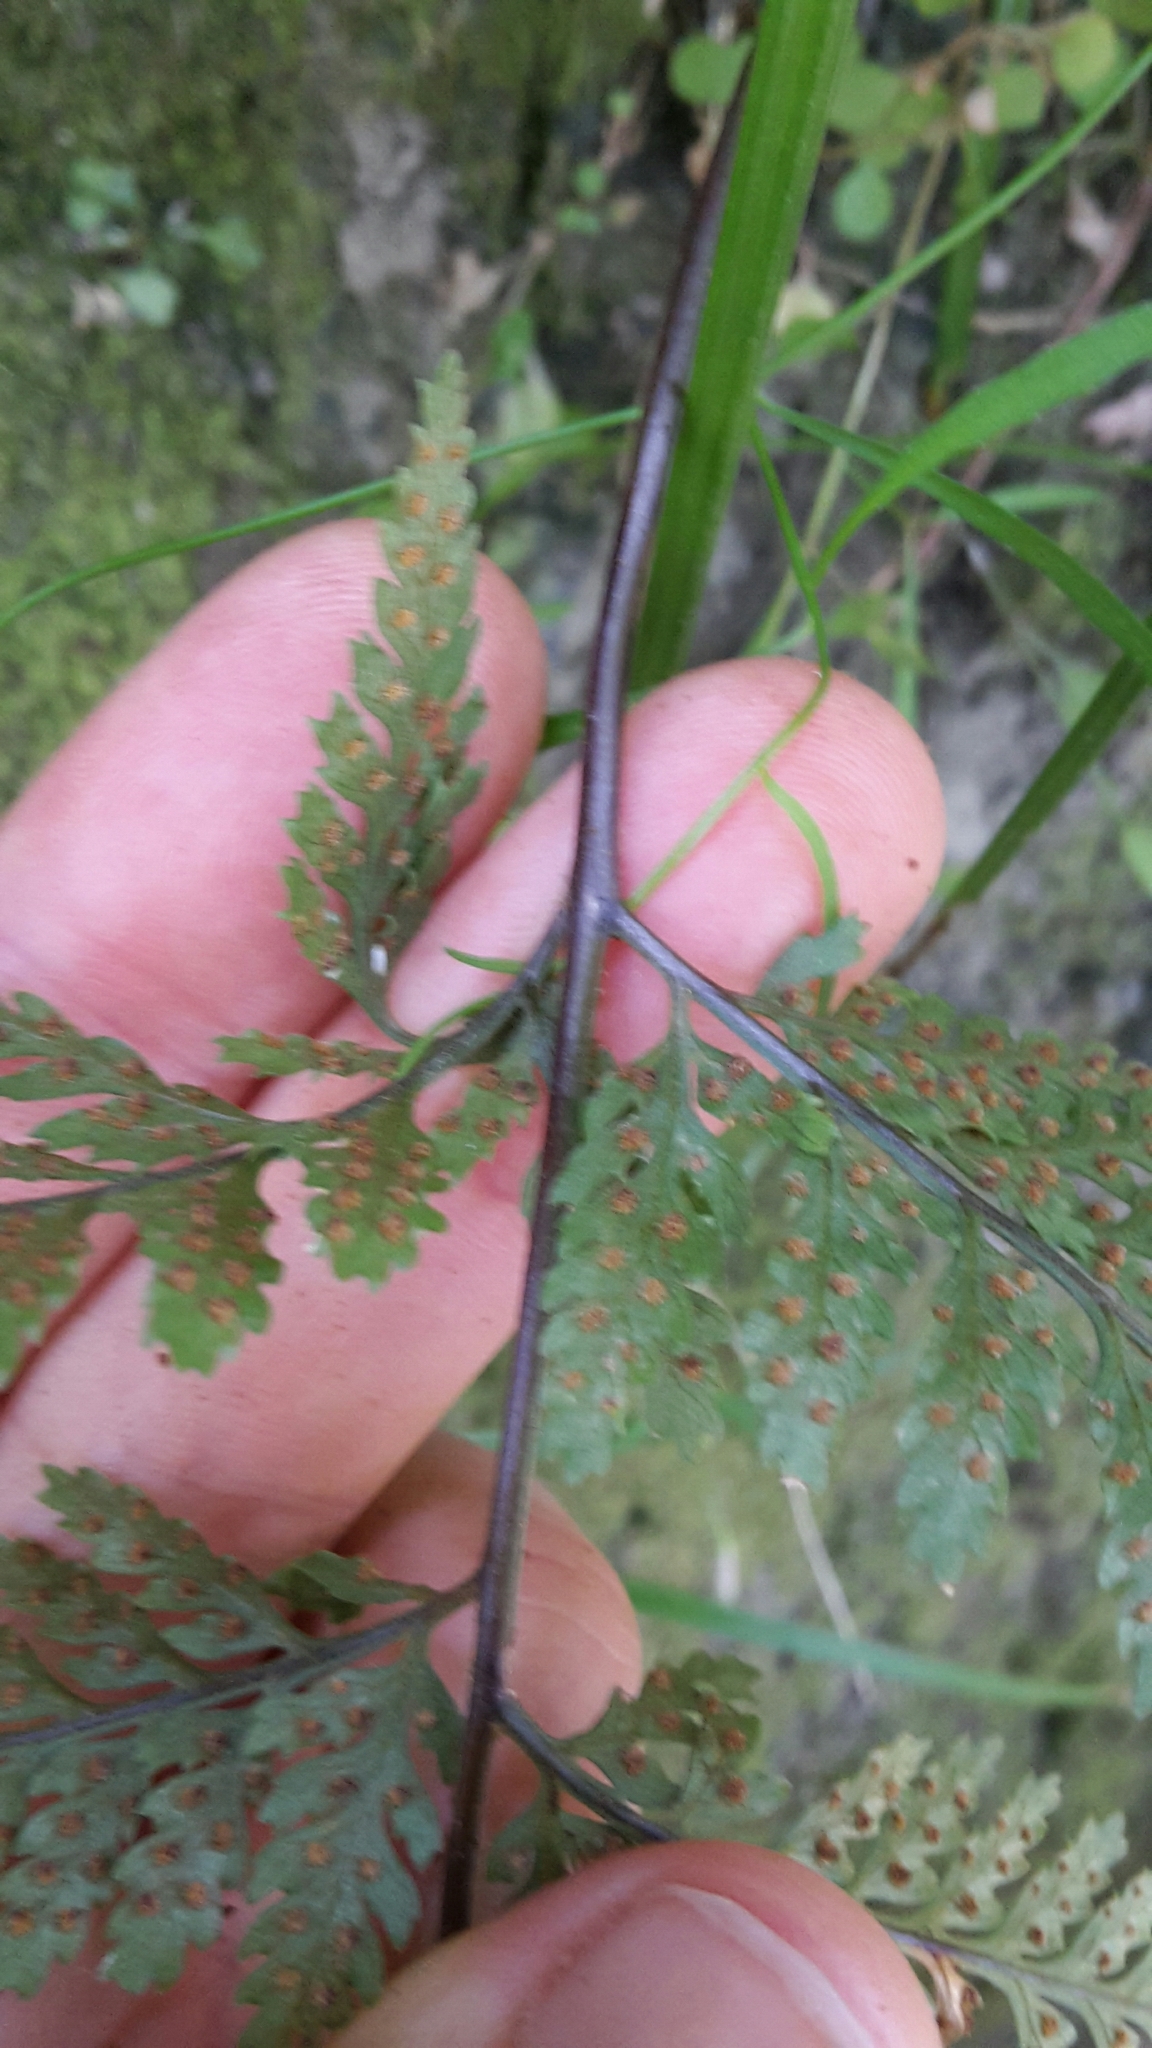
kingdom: Plantae
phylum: Tracheophyta
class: Polypodiopsida
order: Polypodiales
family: Dryopteridaceae
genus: Parapolystichum
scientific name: Parapolystichum glabellum
